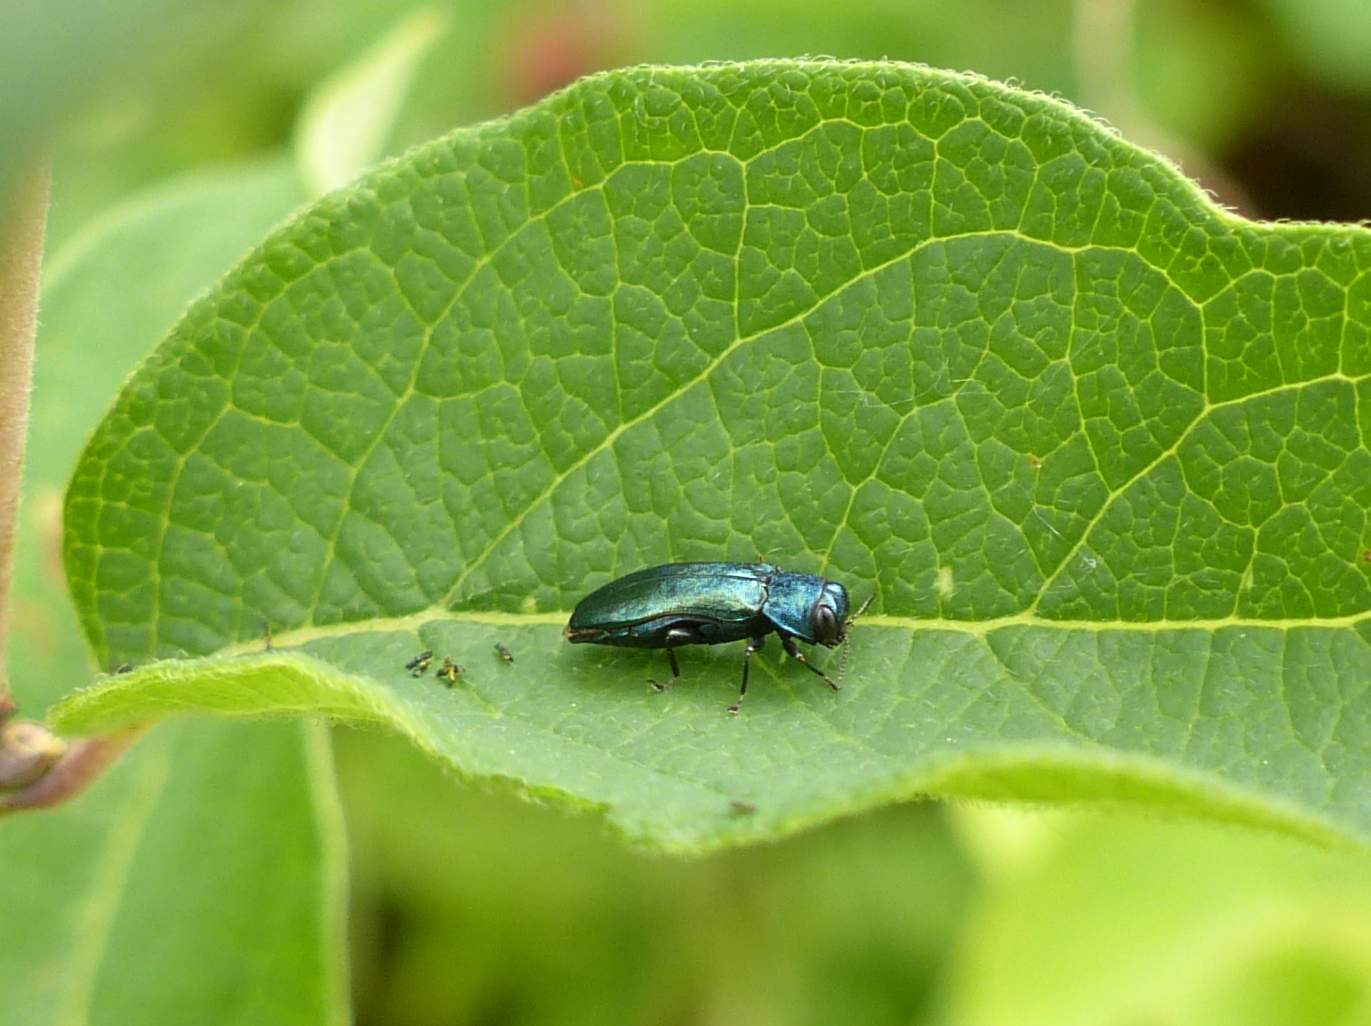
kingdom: Animalia
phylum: Arthropoda
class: Insecta
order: Coleoptera
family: Buprestidae
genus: Agrilus
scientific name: Agrilus cyanescens
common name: Bluish borer beetle
